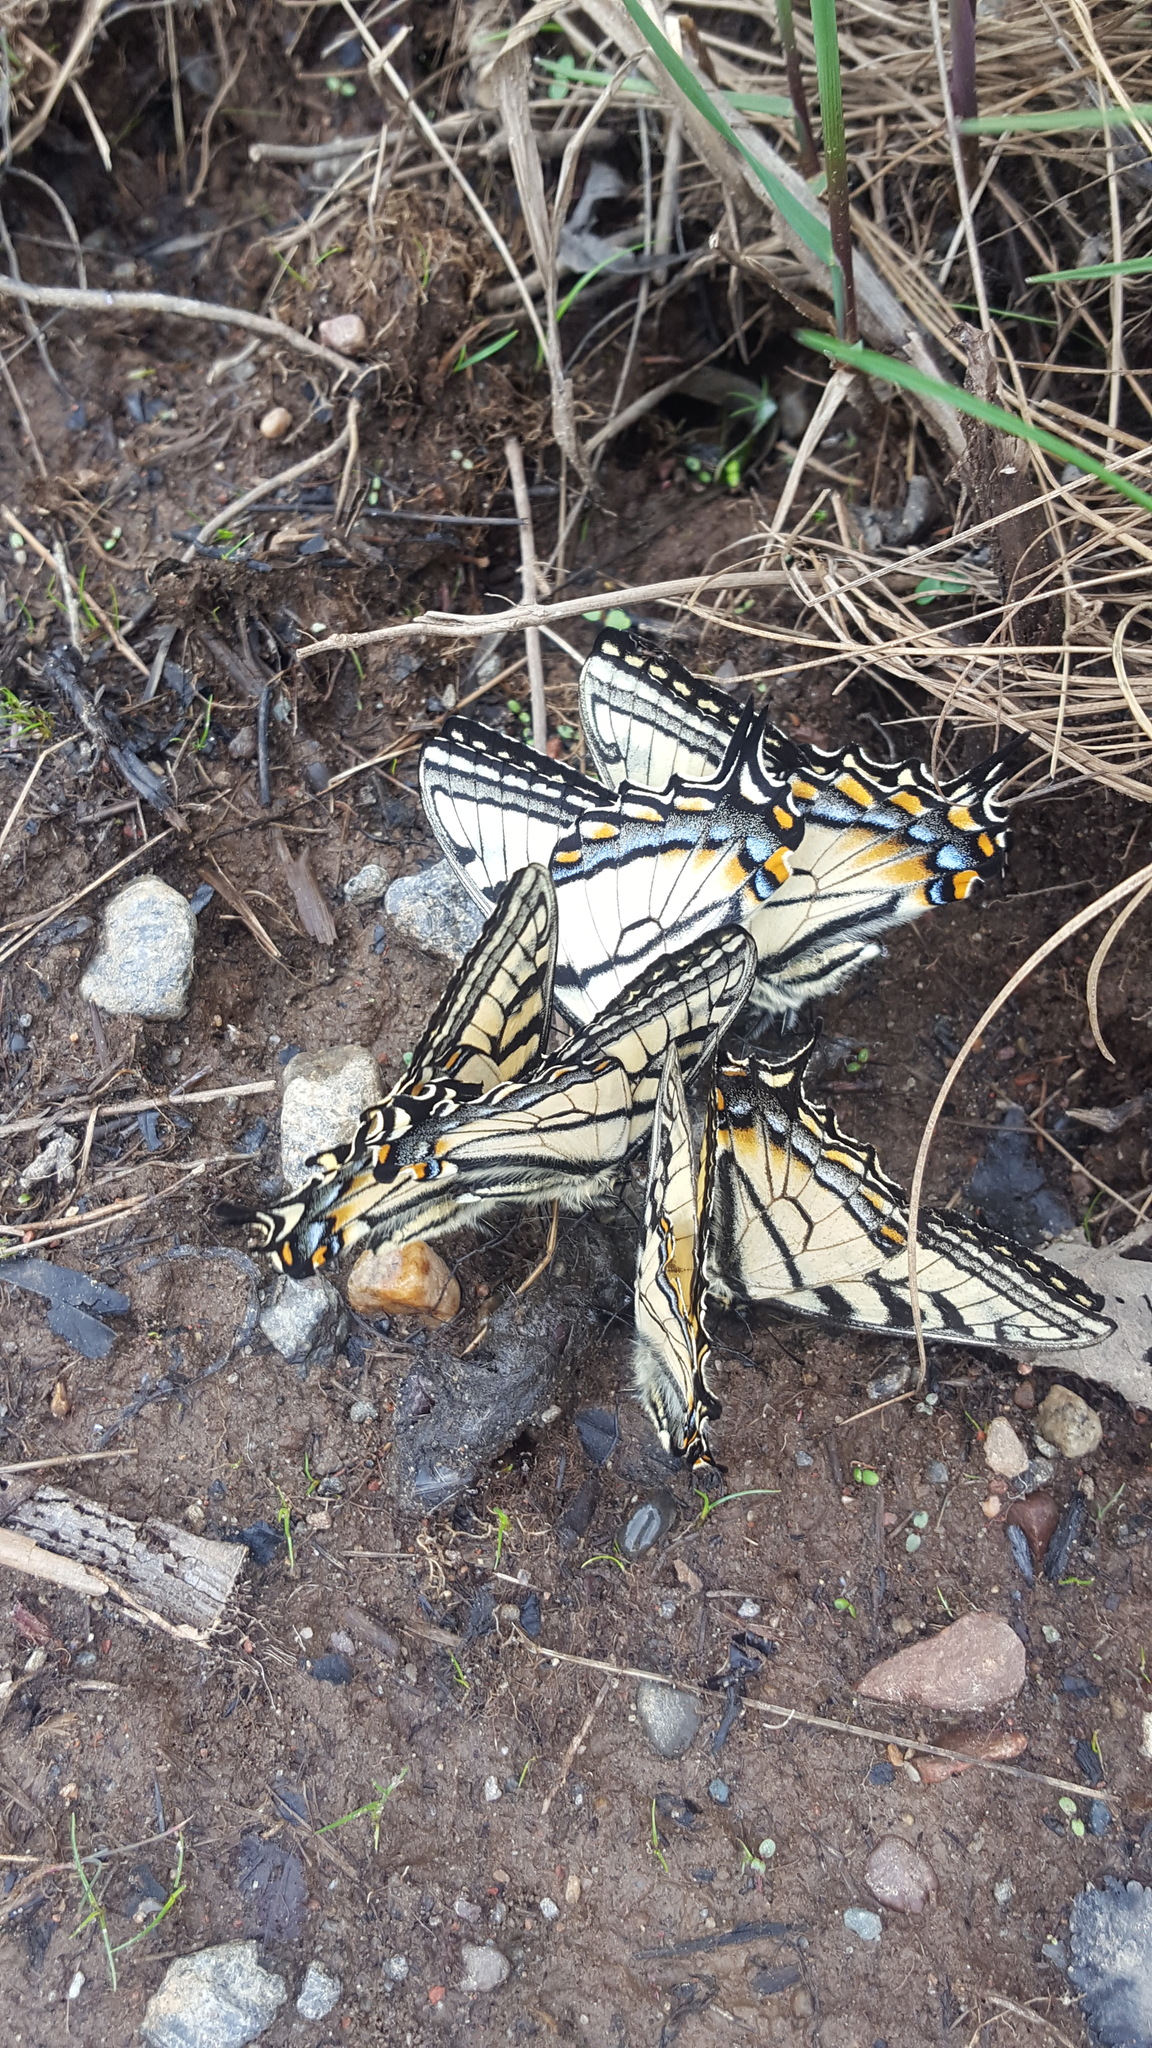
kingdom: Animalia
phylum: Arthropoda
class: Insecta
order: Lepidoptera
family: Papilionidae
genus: Papilio
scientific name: Papilio canadensis
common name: Canadian tiger swallowtail
